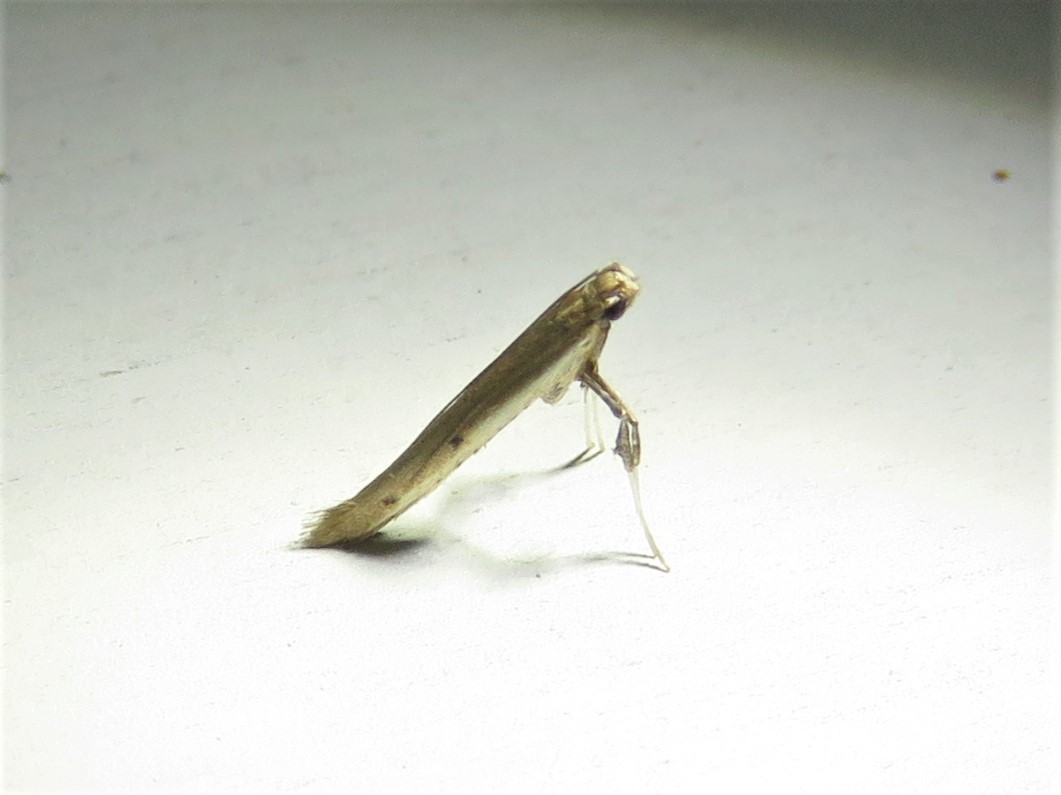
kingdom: Animalia
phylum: Arthropoda
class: Insecta
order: Lepidoptera
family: Gracillariidae
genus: Caloptilia
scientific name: Caloptilia violacella
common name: Tick-trefoil caloptilia moth
